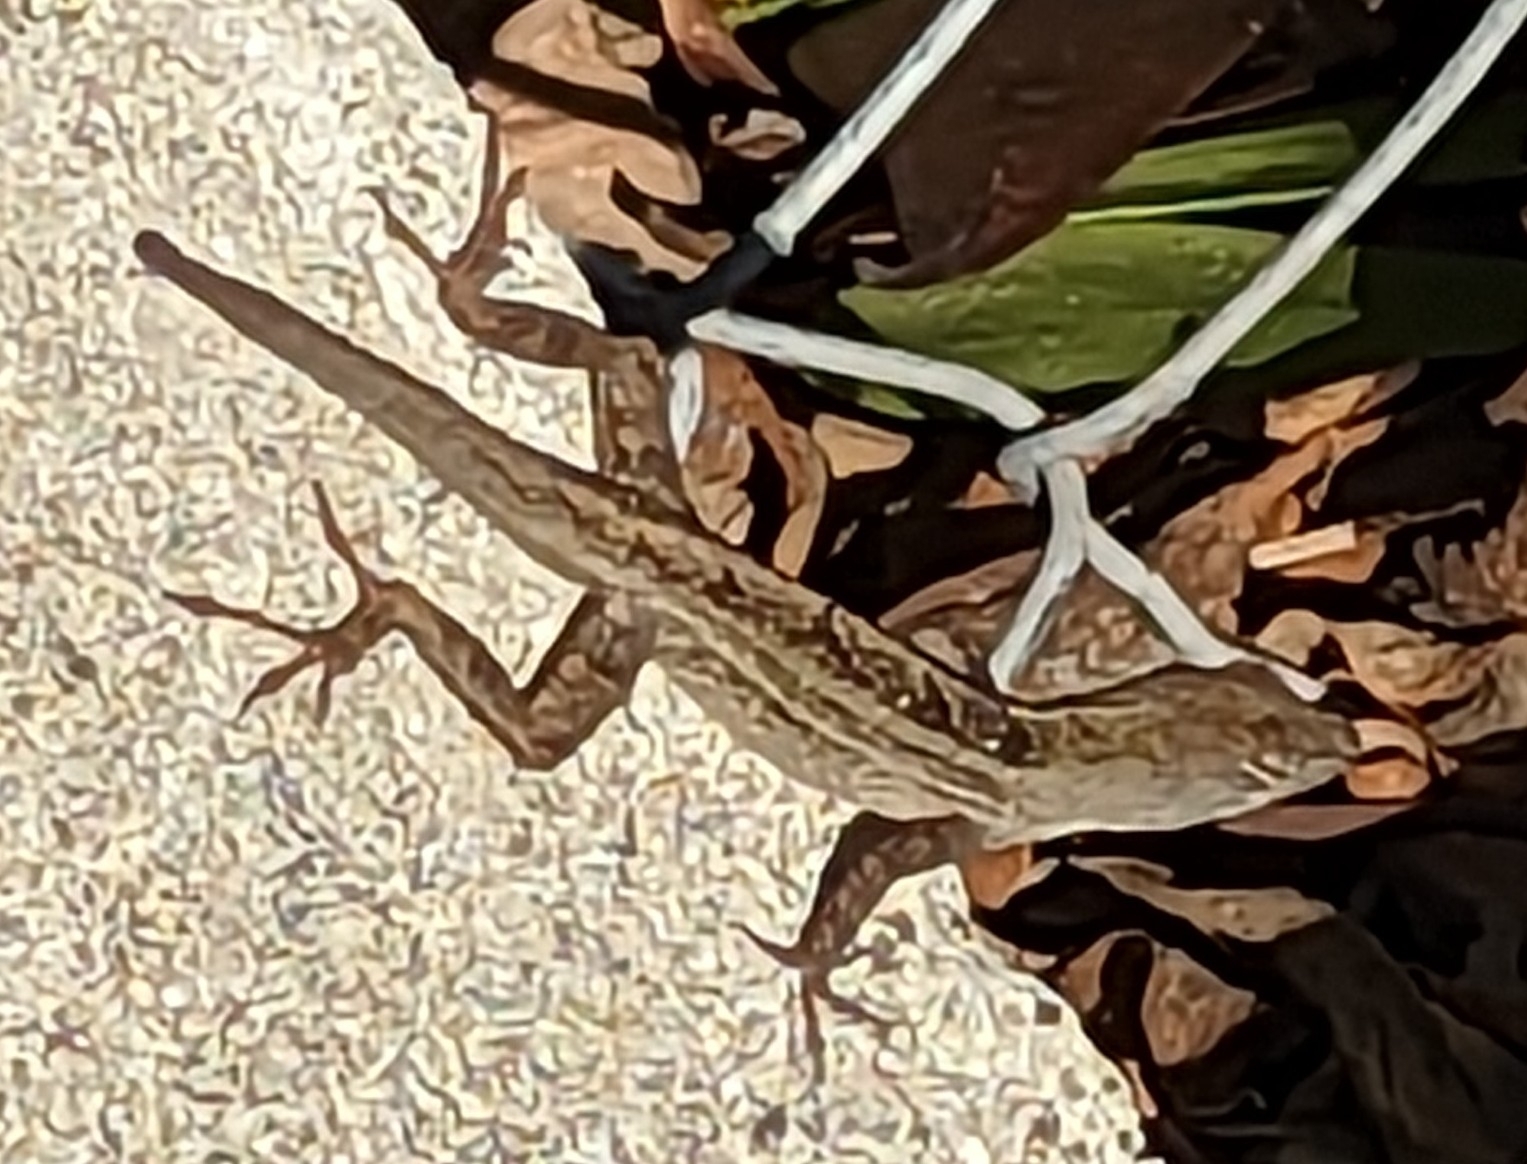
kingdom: Animalia
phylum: Chordata
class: Squamata
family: Dactyloidae
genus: Anolis
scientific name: Anolis sagrei
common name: Brown anole
